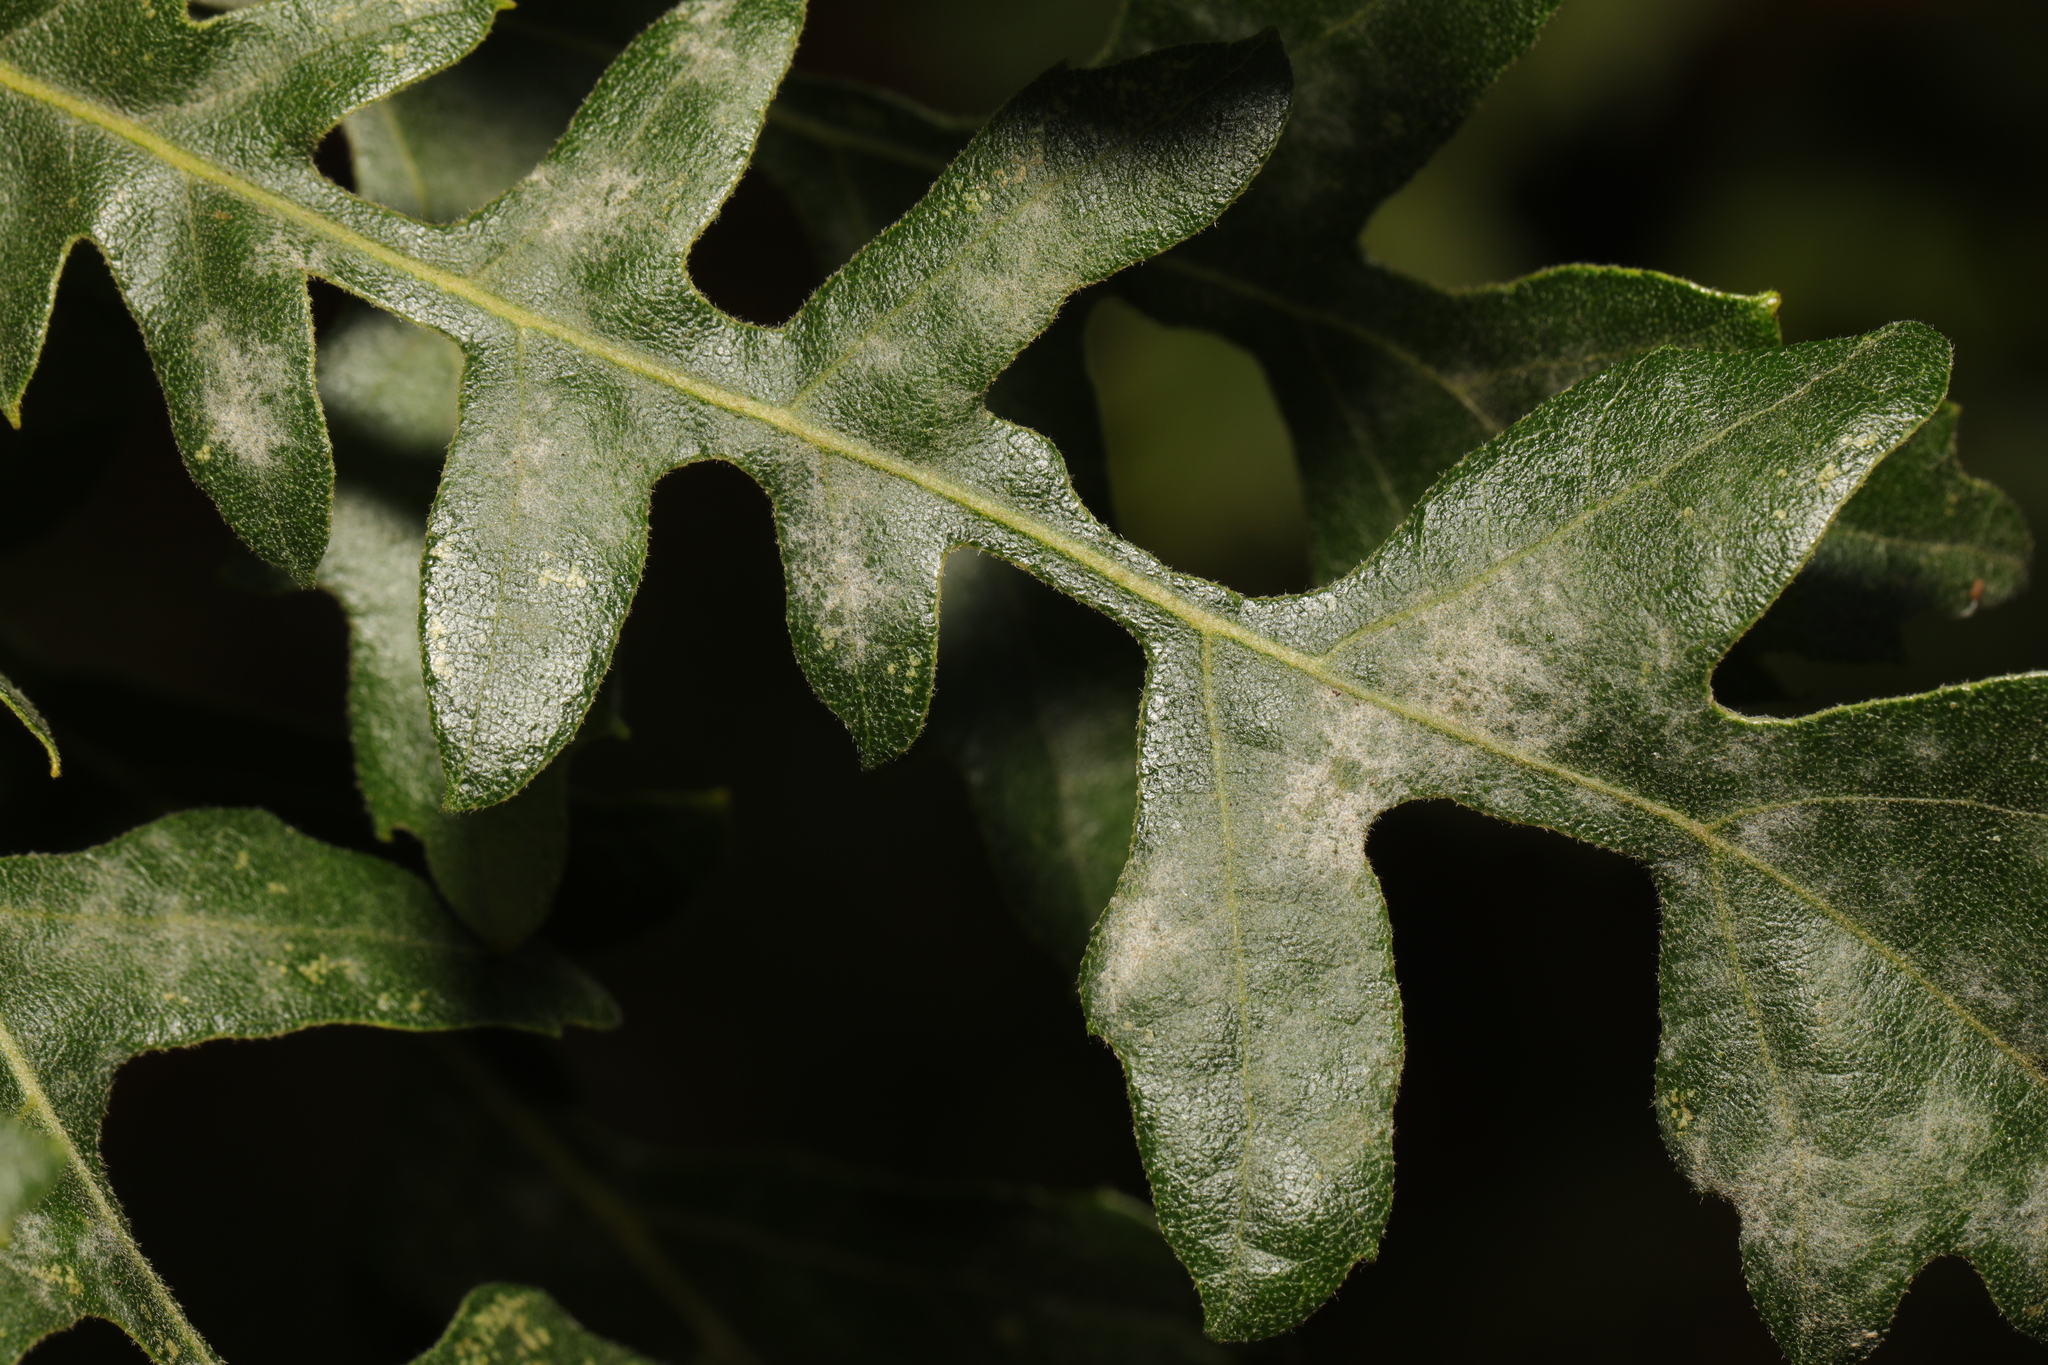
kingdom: Plantae
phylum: Tracheophyta
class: Magnoliopsida
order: Fagales
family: Fagaceae
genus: Quercus
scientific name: Quercus cerris
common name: Turkey oak
